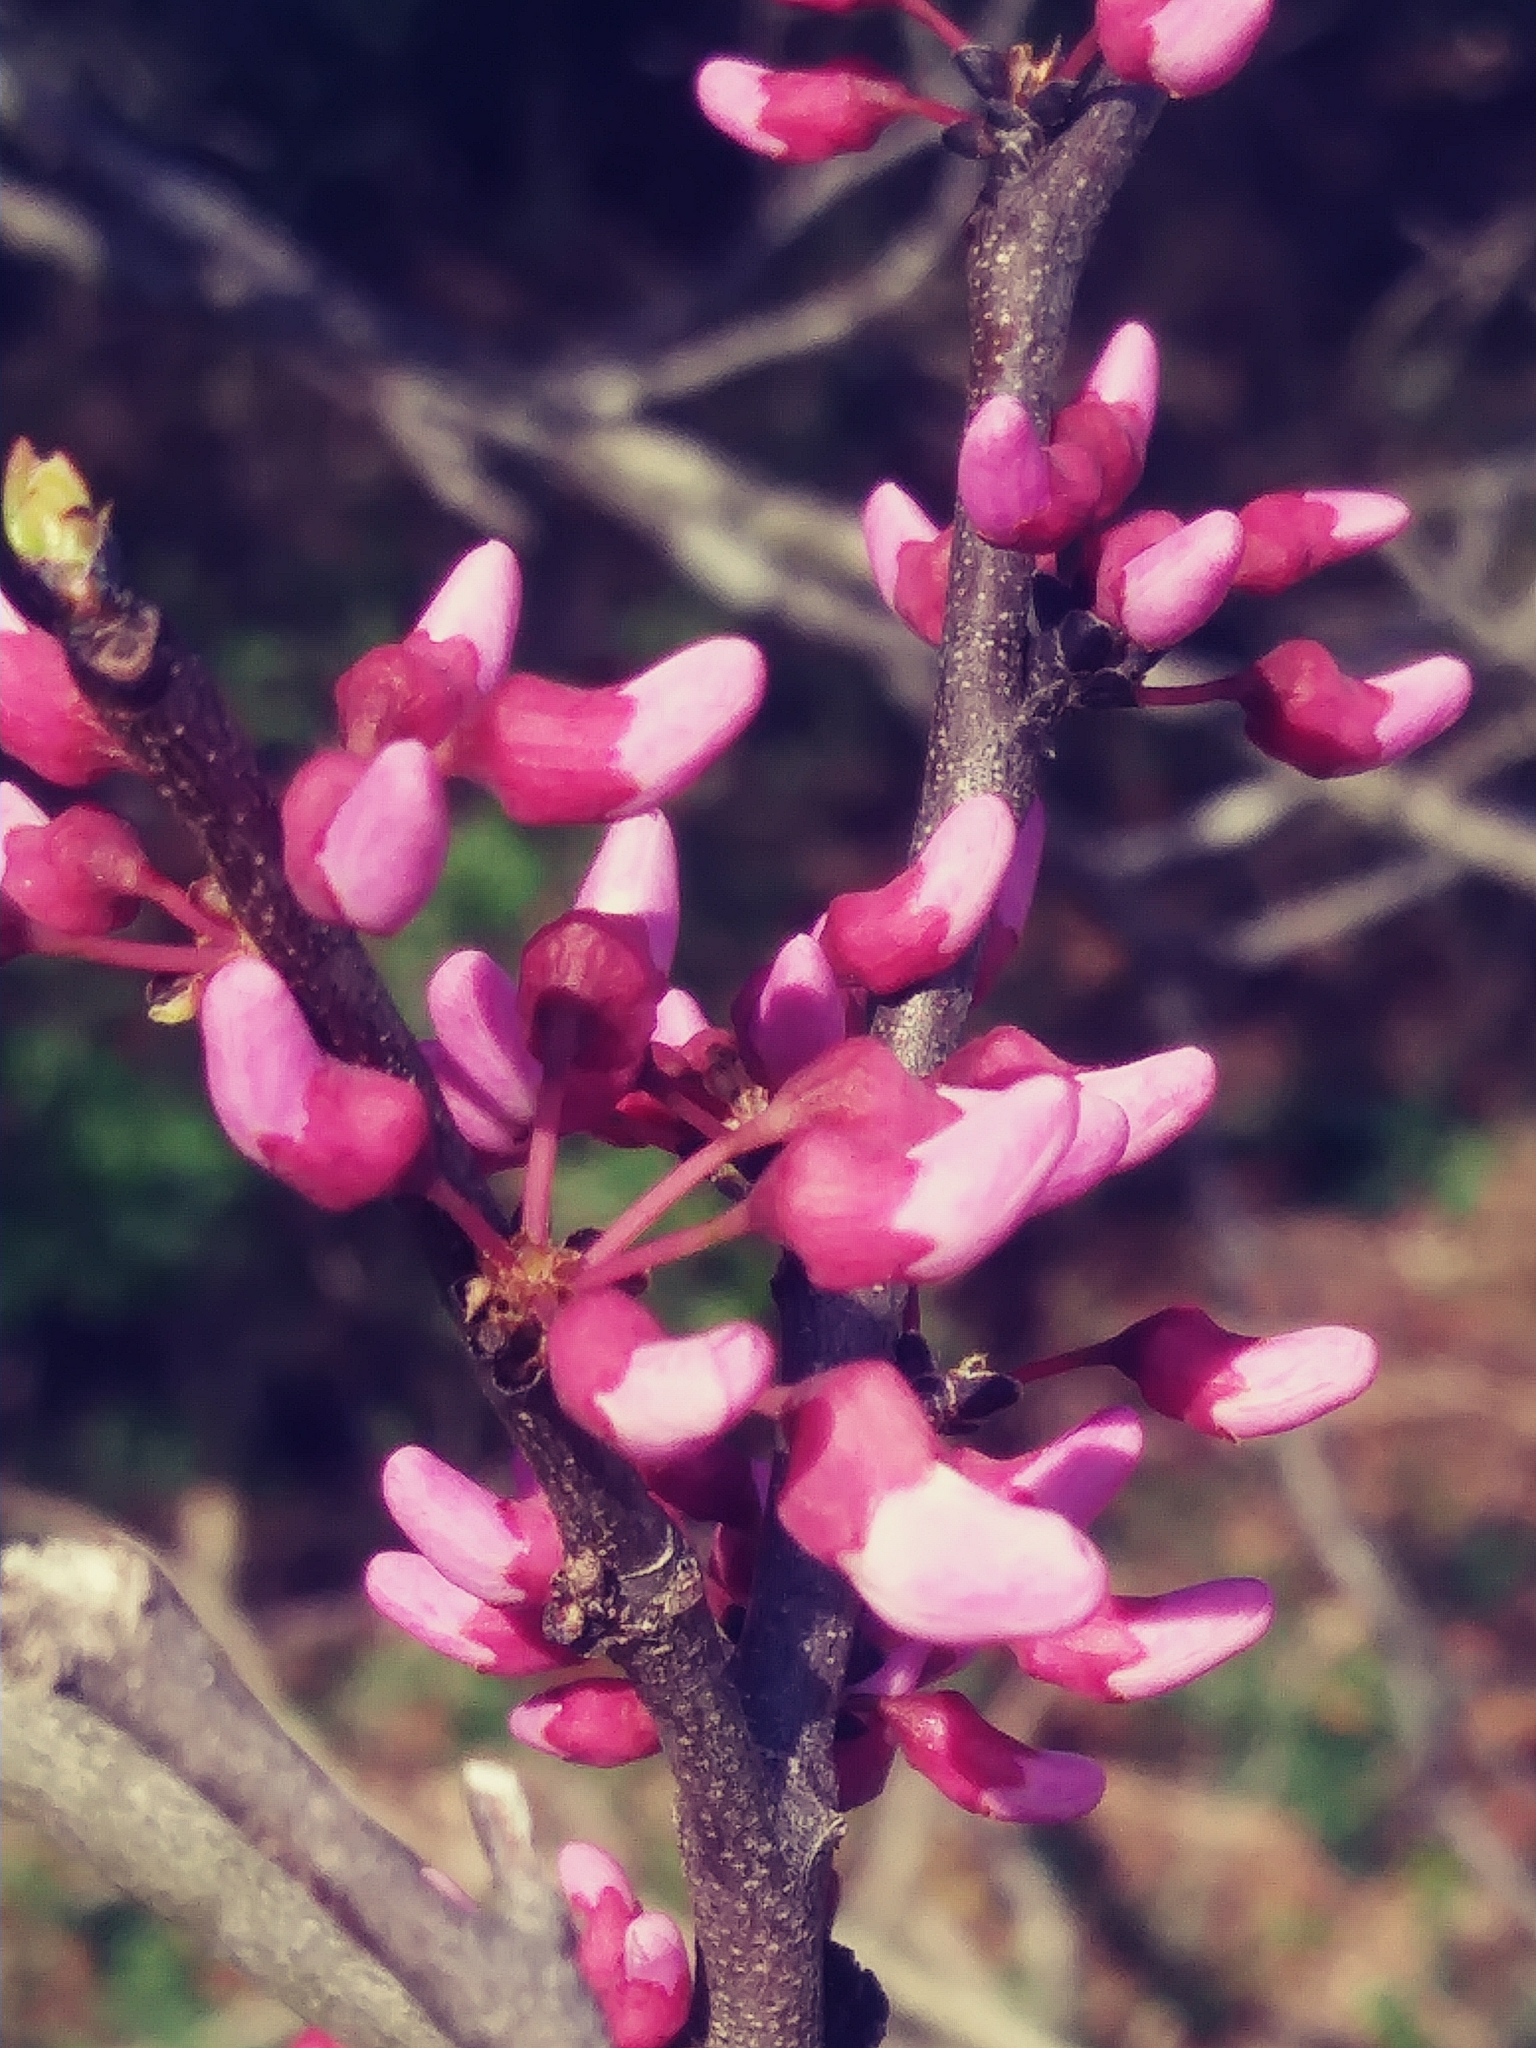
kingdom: Plantae
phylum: Tracheophyta
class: Magnoliopsida
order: Fabales
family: Fabaceae
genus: Cercis
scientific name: Cercis canadensis
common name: Eastern redbud
